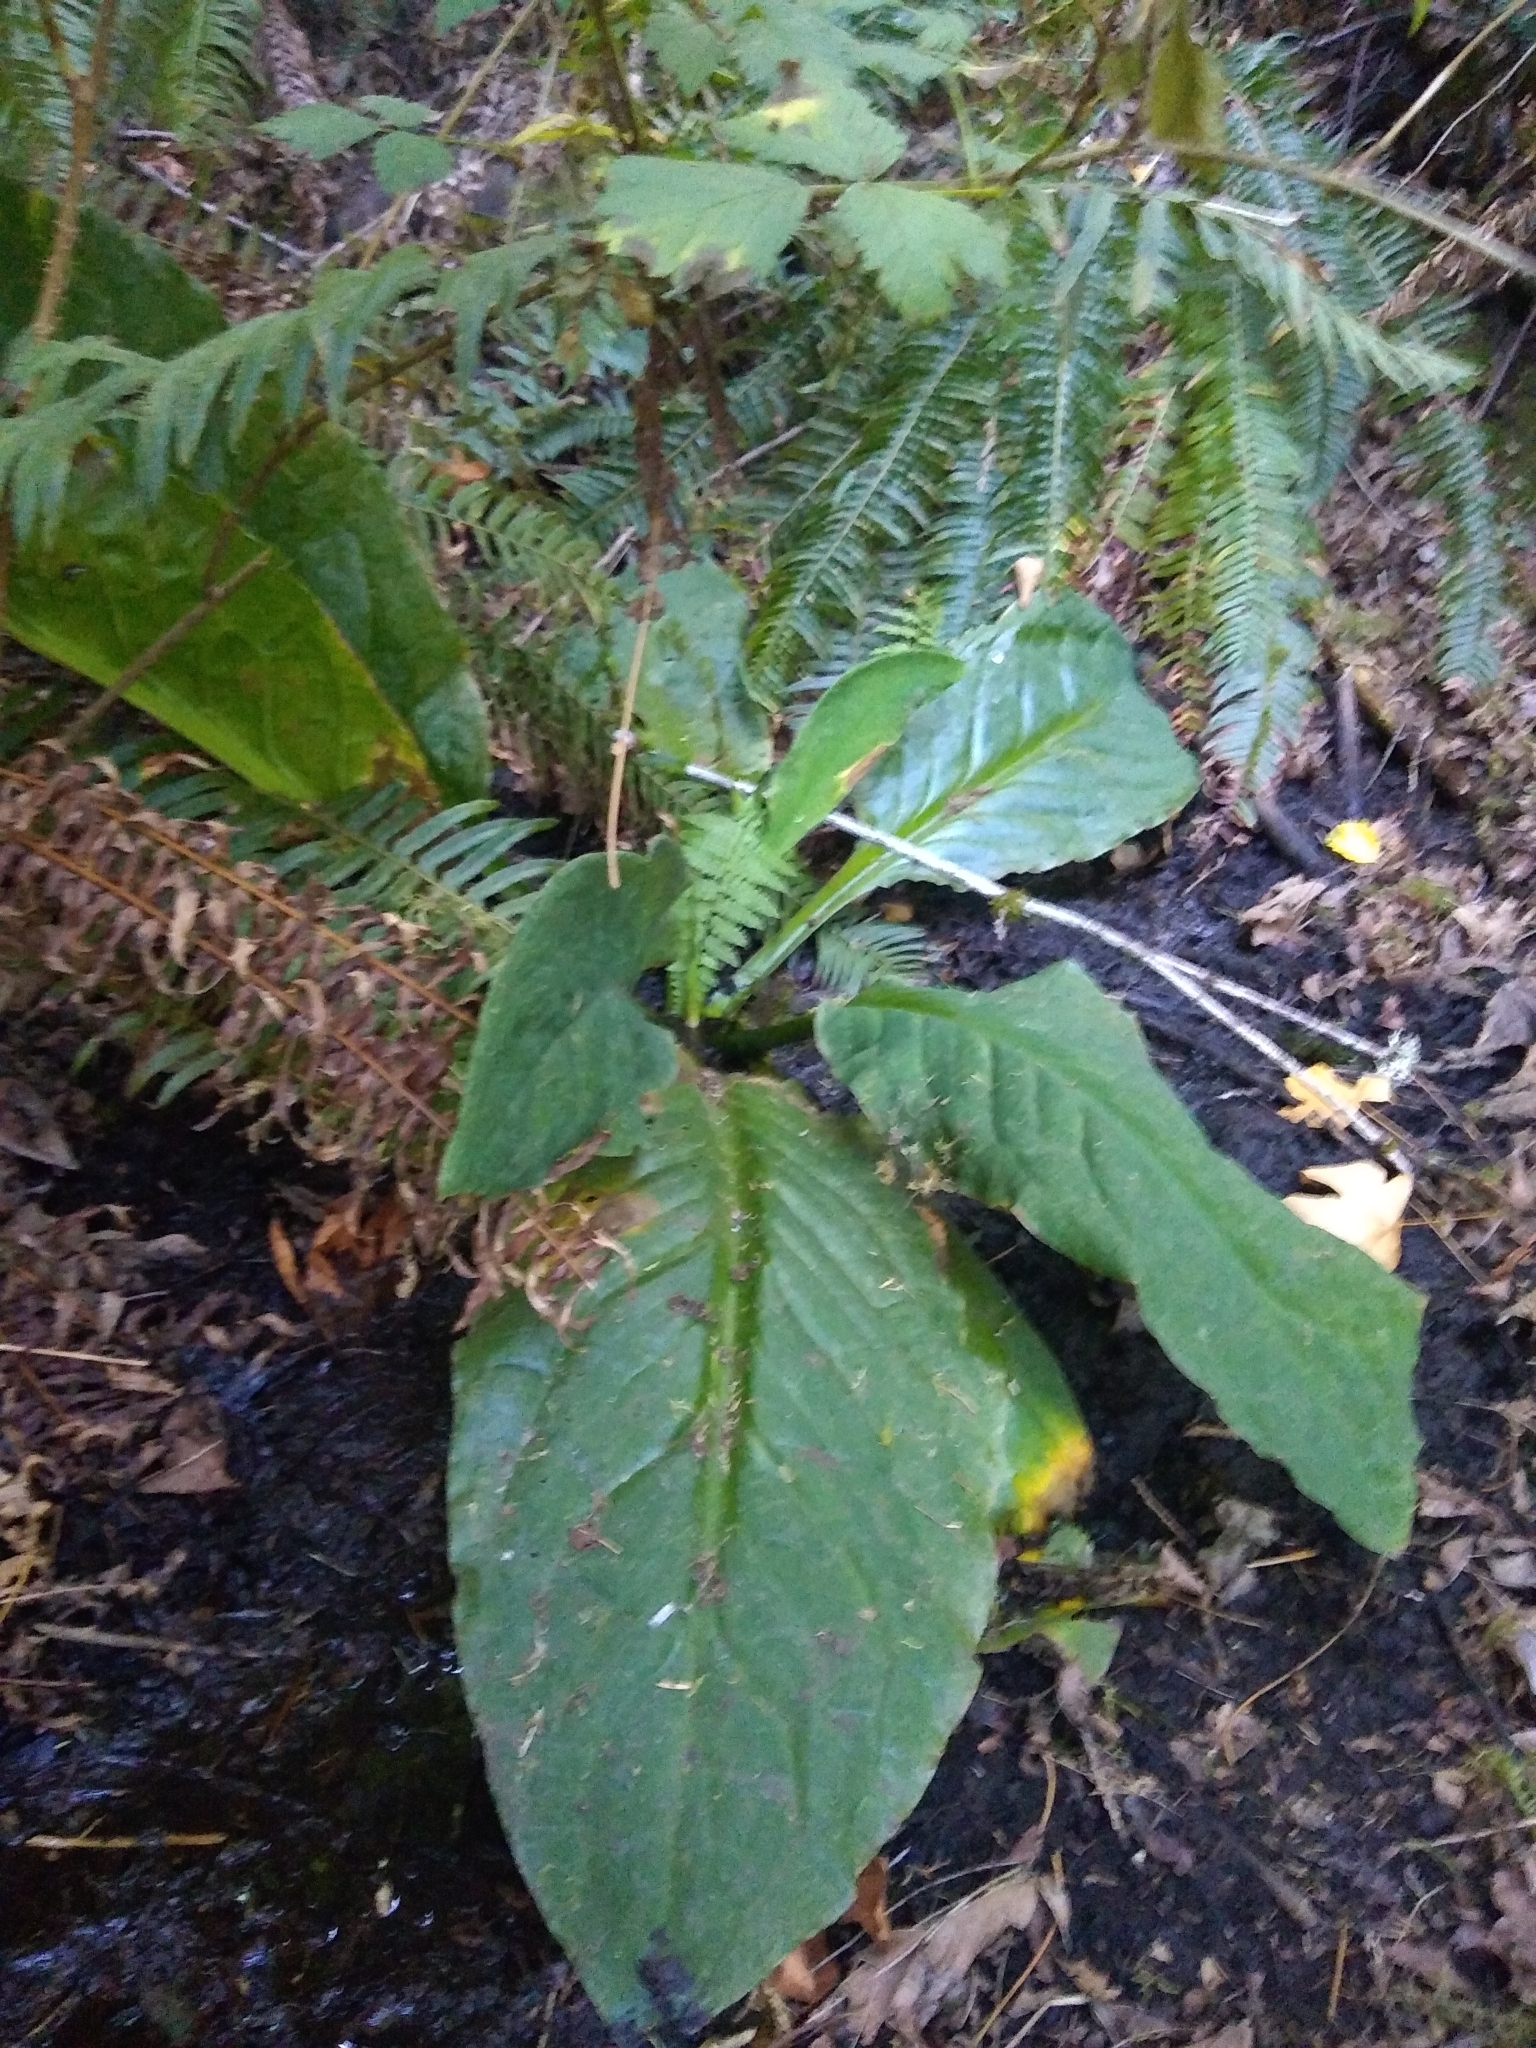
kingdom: Plantae
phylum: Tracheophyta
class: Liliopsida
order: Alismatales
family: Araceae
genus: Lysichiton
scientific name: Lysichiton americanus
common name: American skunk cabbage
